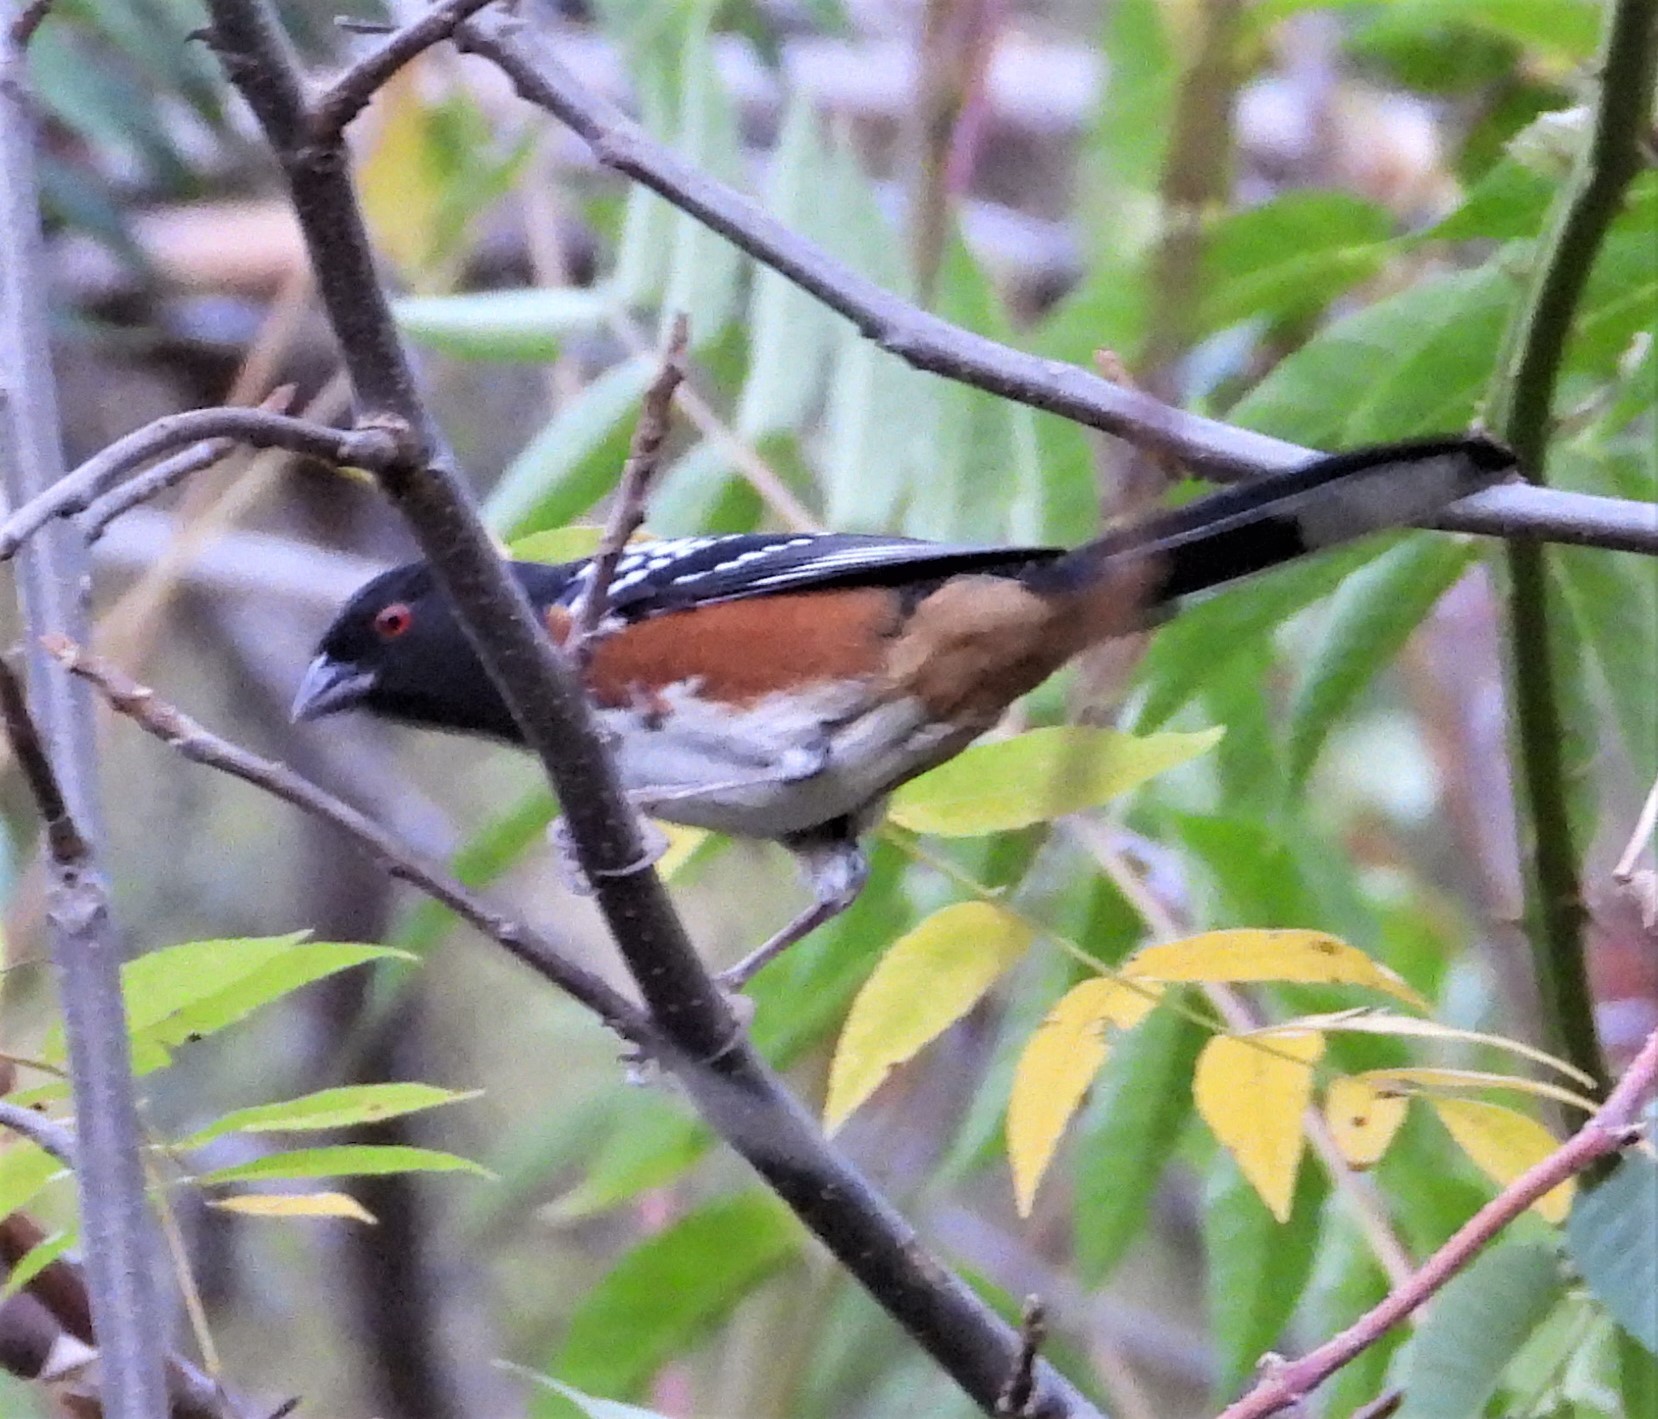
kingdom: Animalia
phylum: Chordata
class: Aves
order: Passeriformes
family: Passerellidae
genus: Pipilo
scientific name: Pipilo maculatus
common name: Spotted towhee
